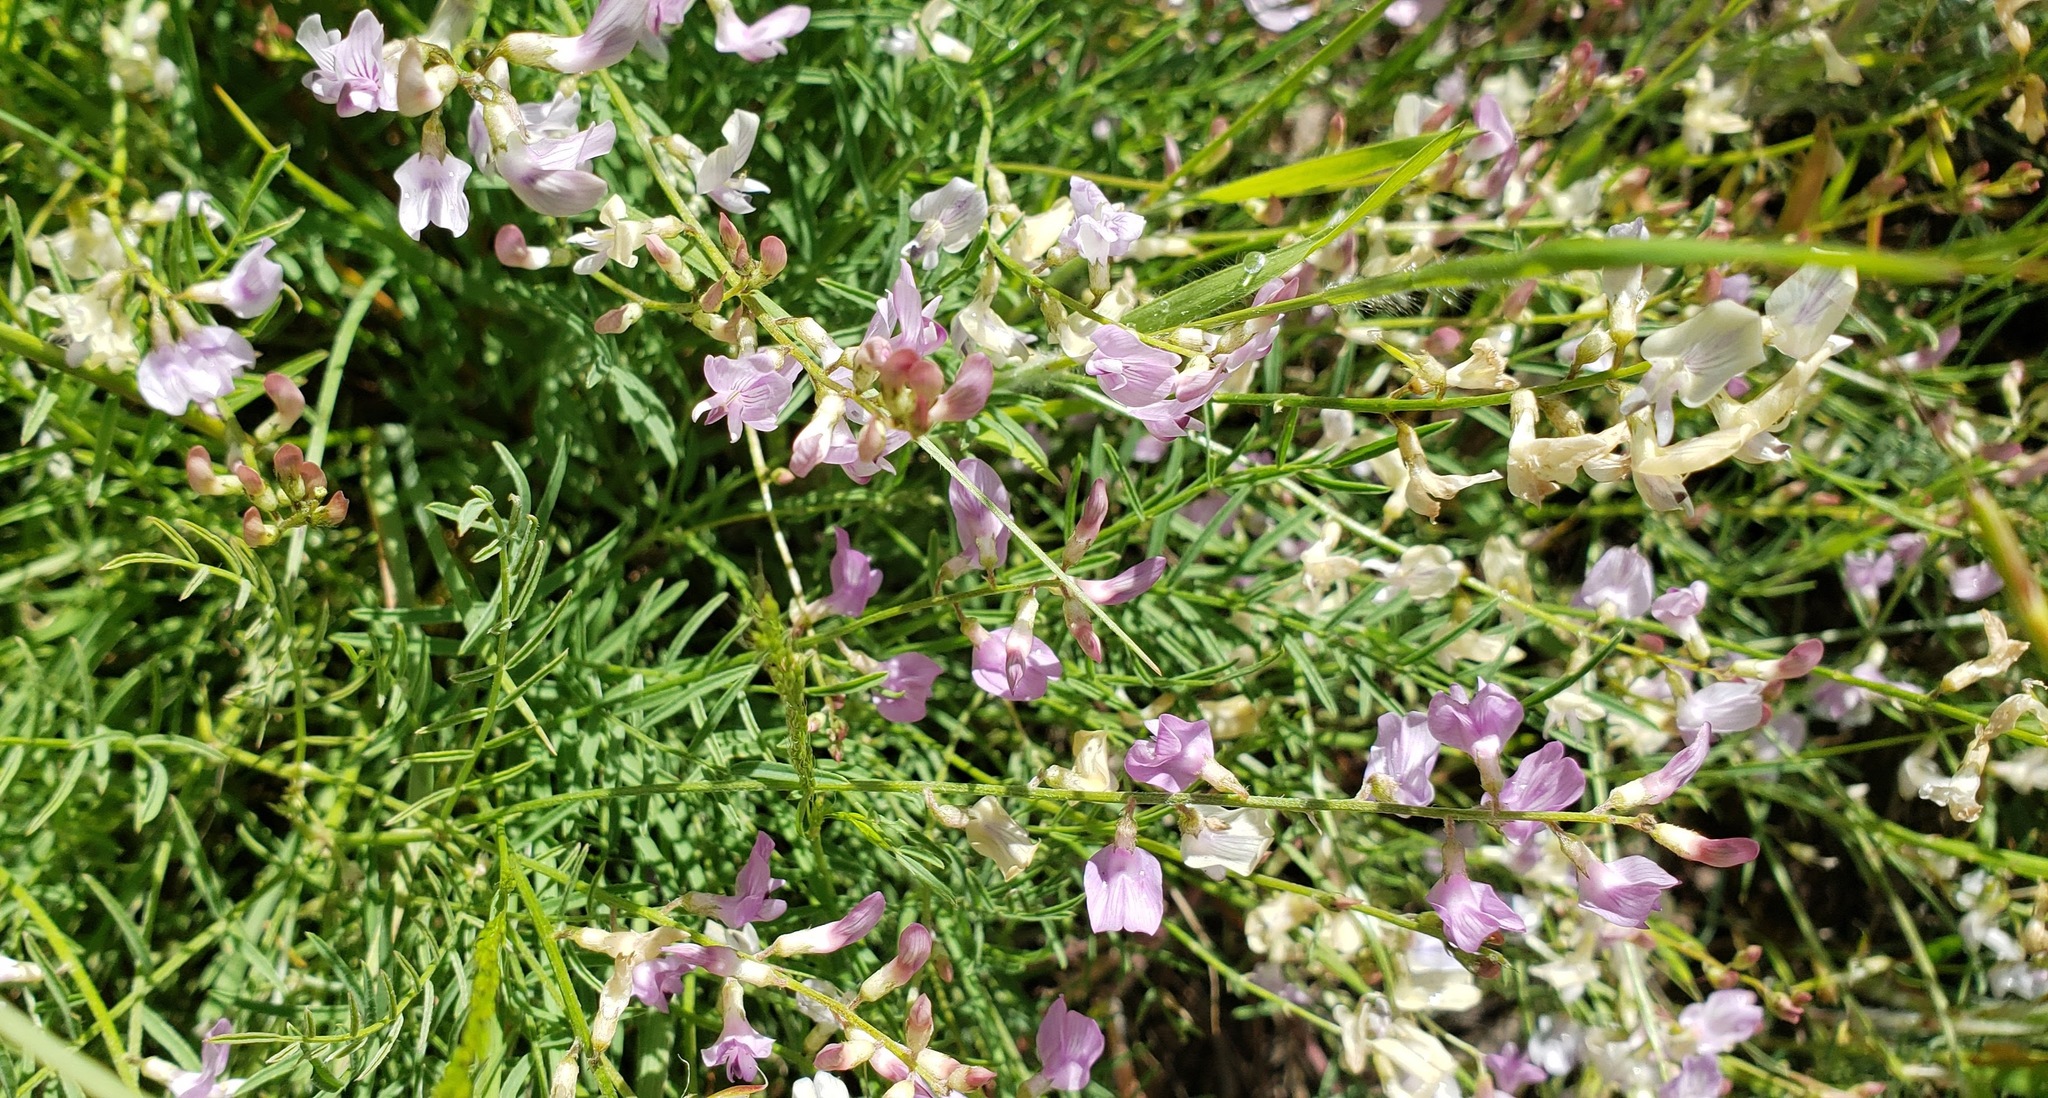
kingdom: Plantae
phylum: Tracheophyta
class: Magnoliopsida
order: Fabales
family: Fabaceae
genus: Astragalus
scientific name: Astragalus miser
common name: Timber milkvetch
